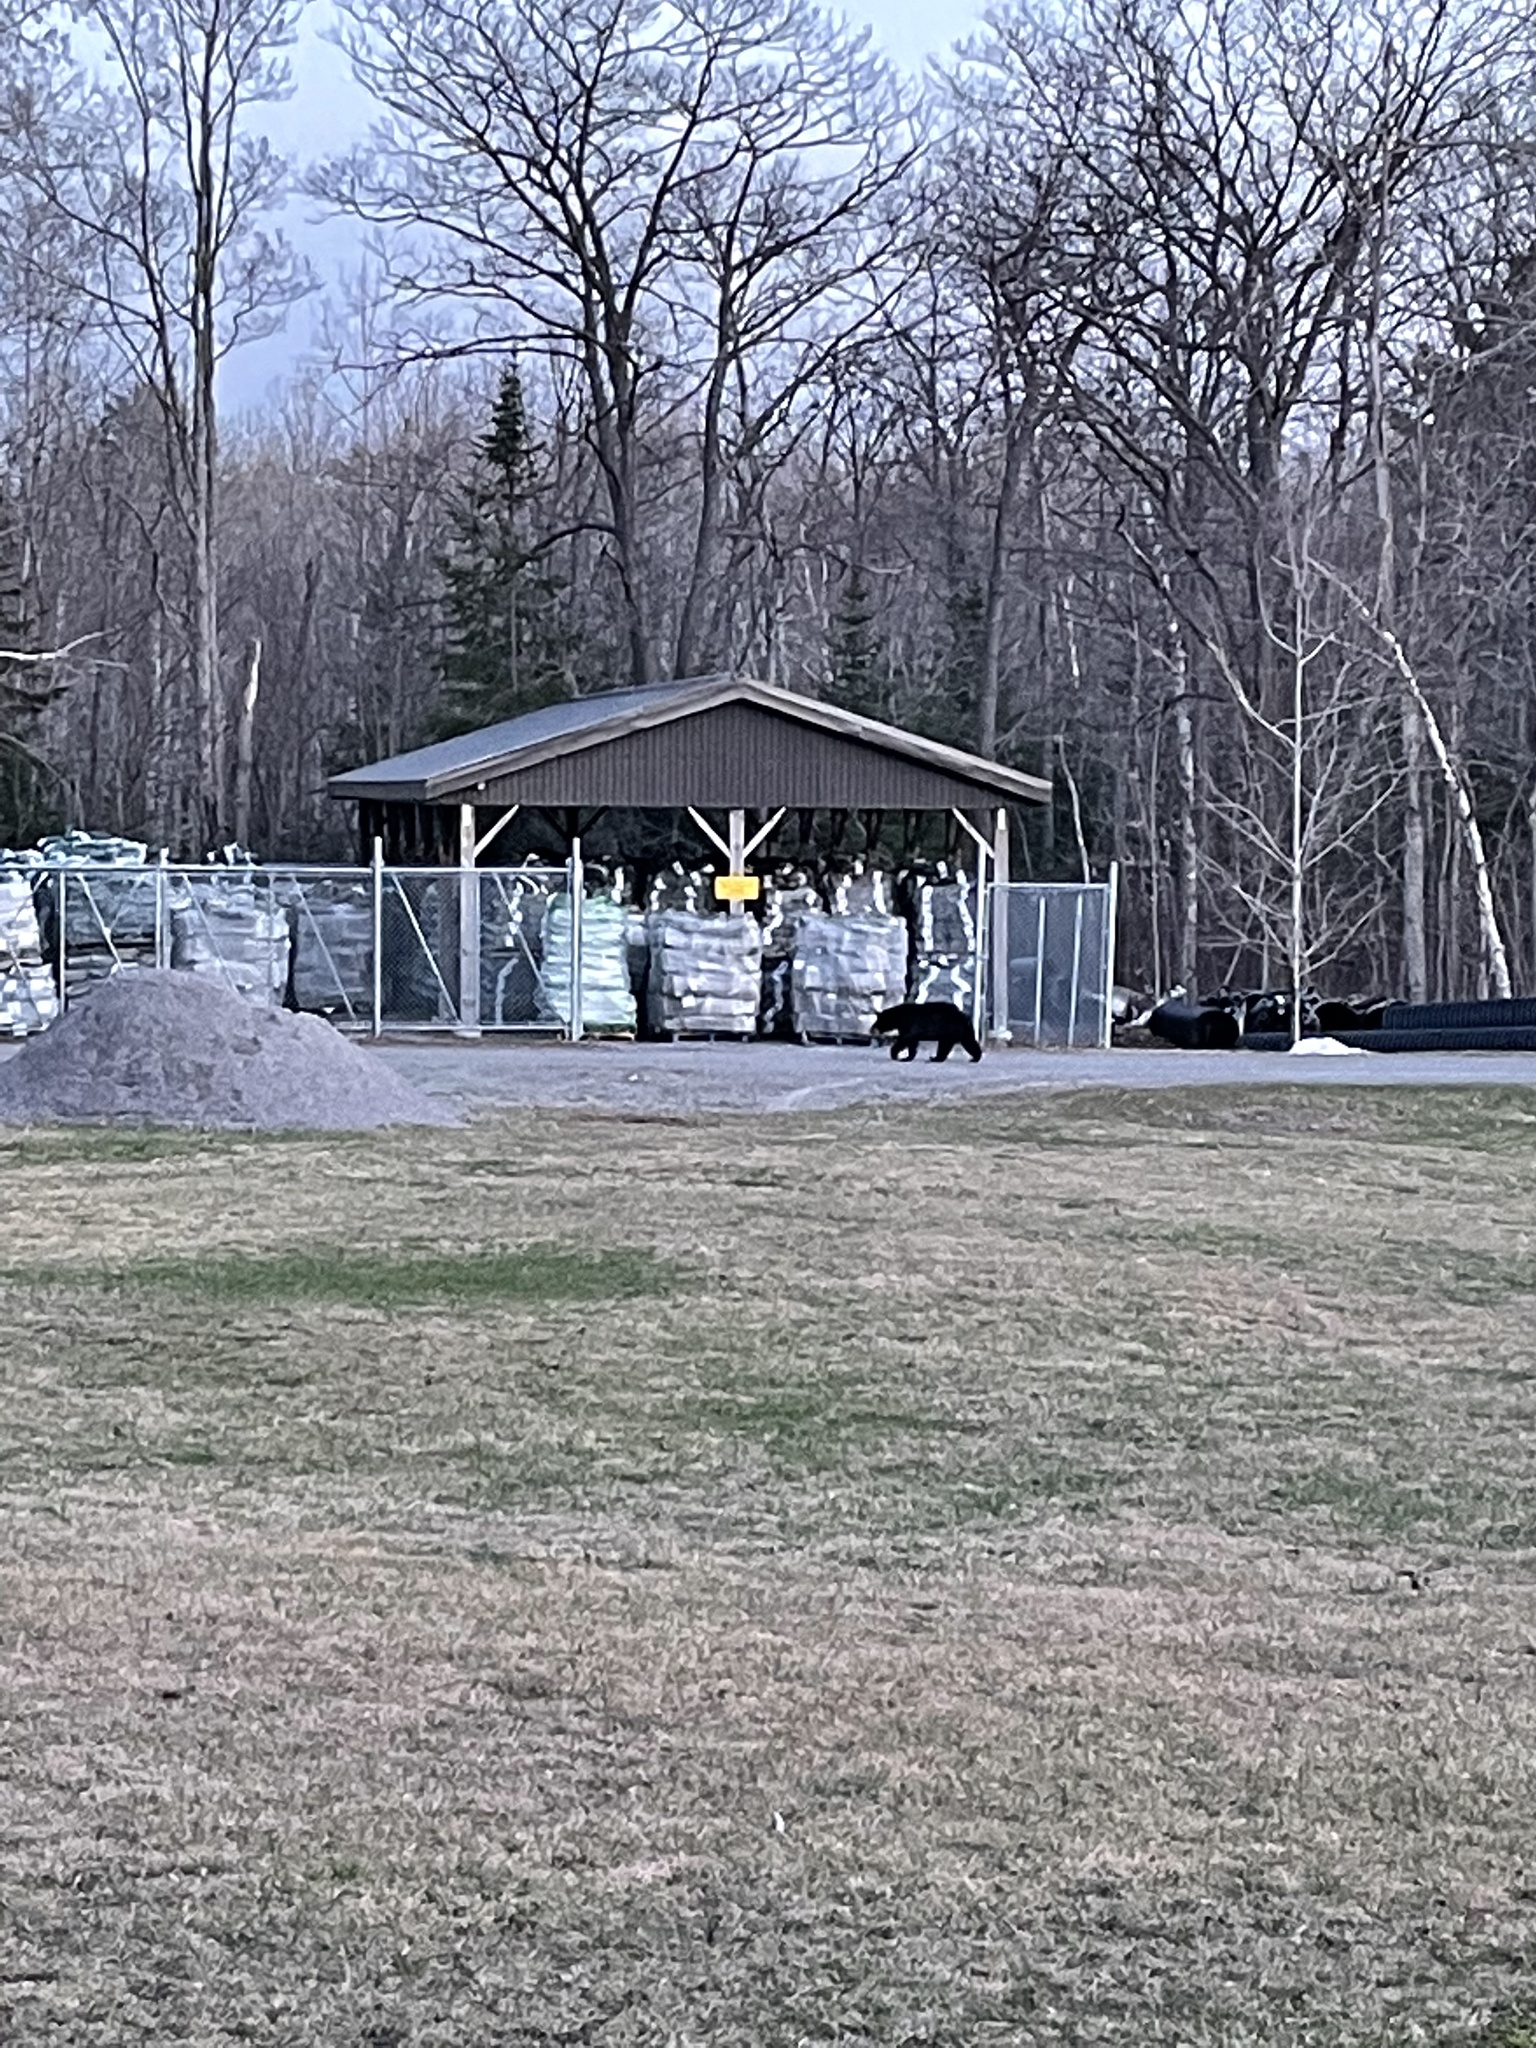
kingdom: Animalia
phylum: Chordata
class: Mammalia
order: Carnivora
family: Ursidae
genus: Ursus
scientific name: Ursus americanus
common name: American black bear
